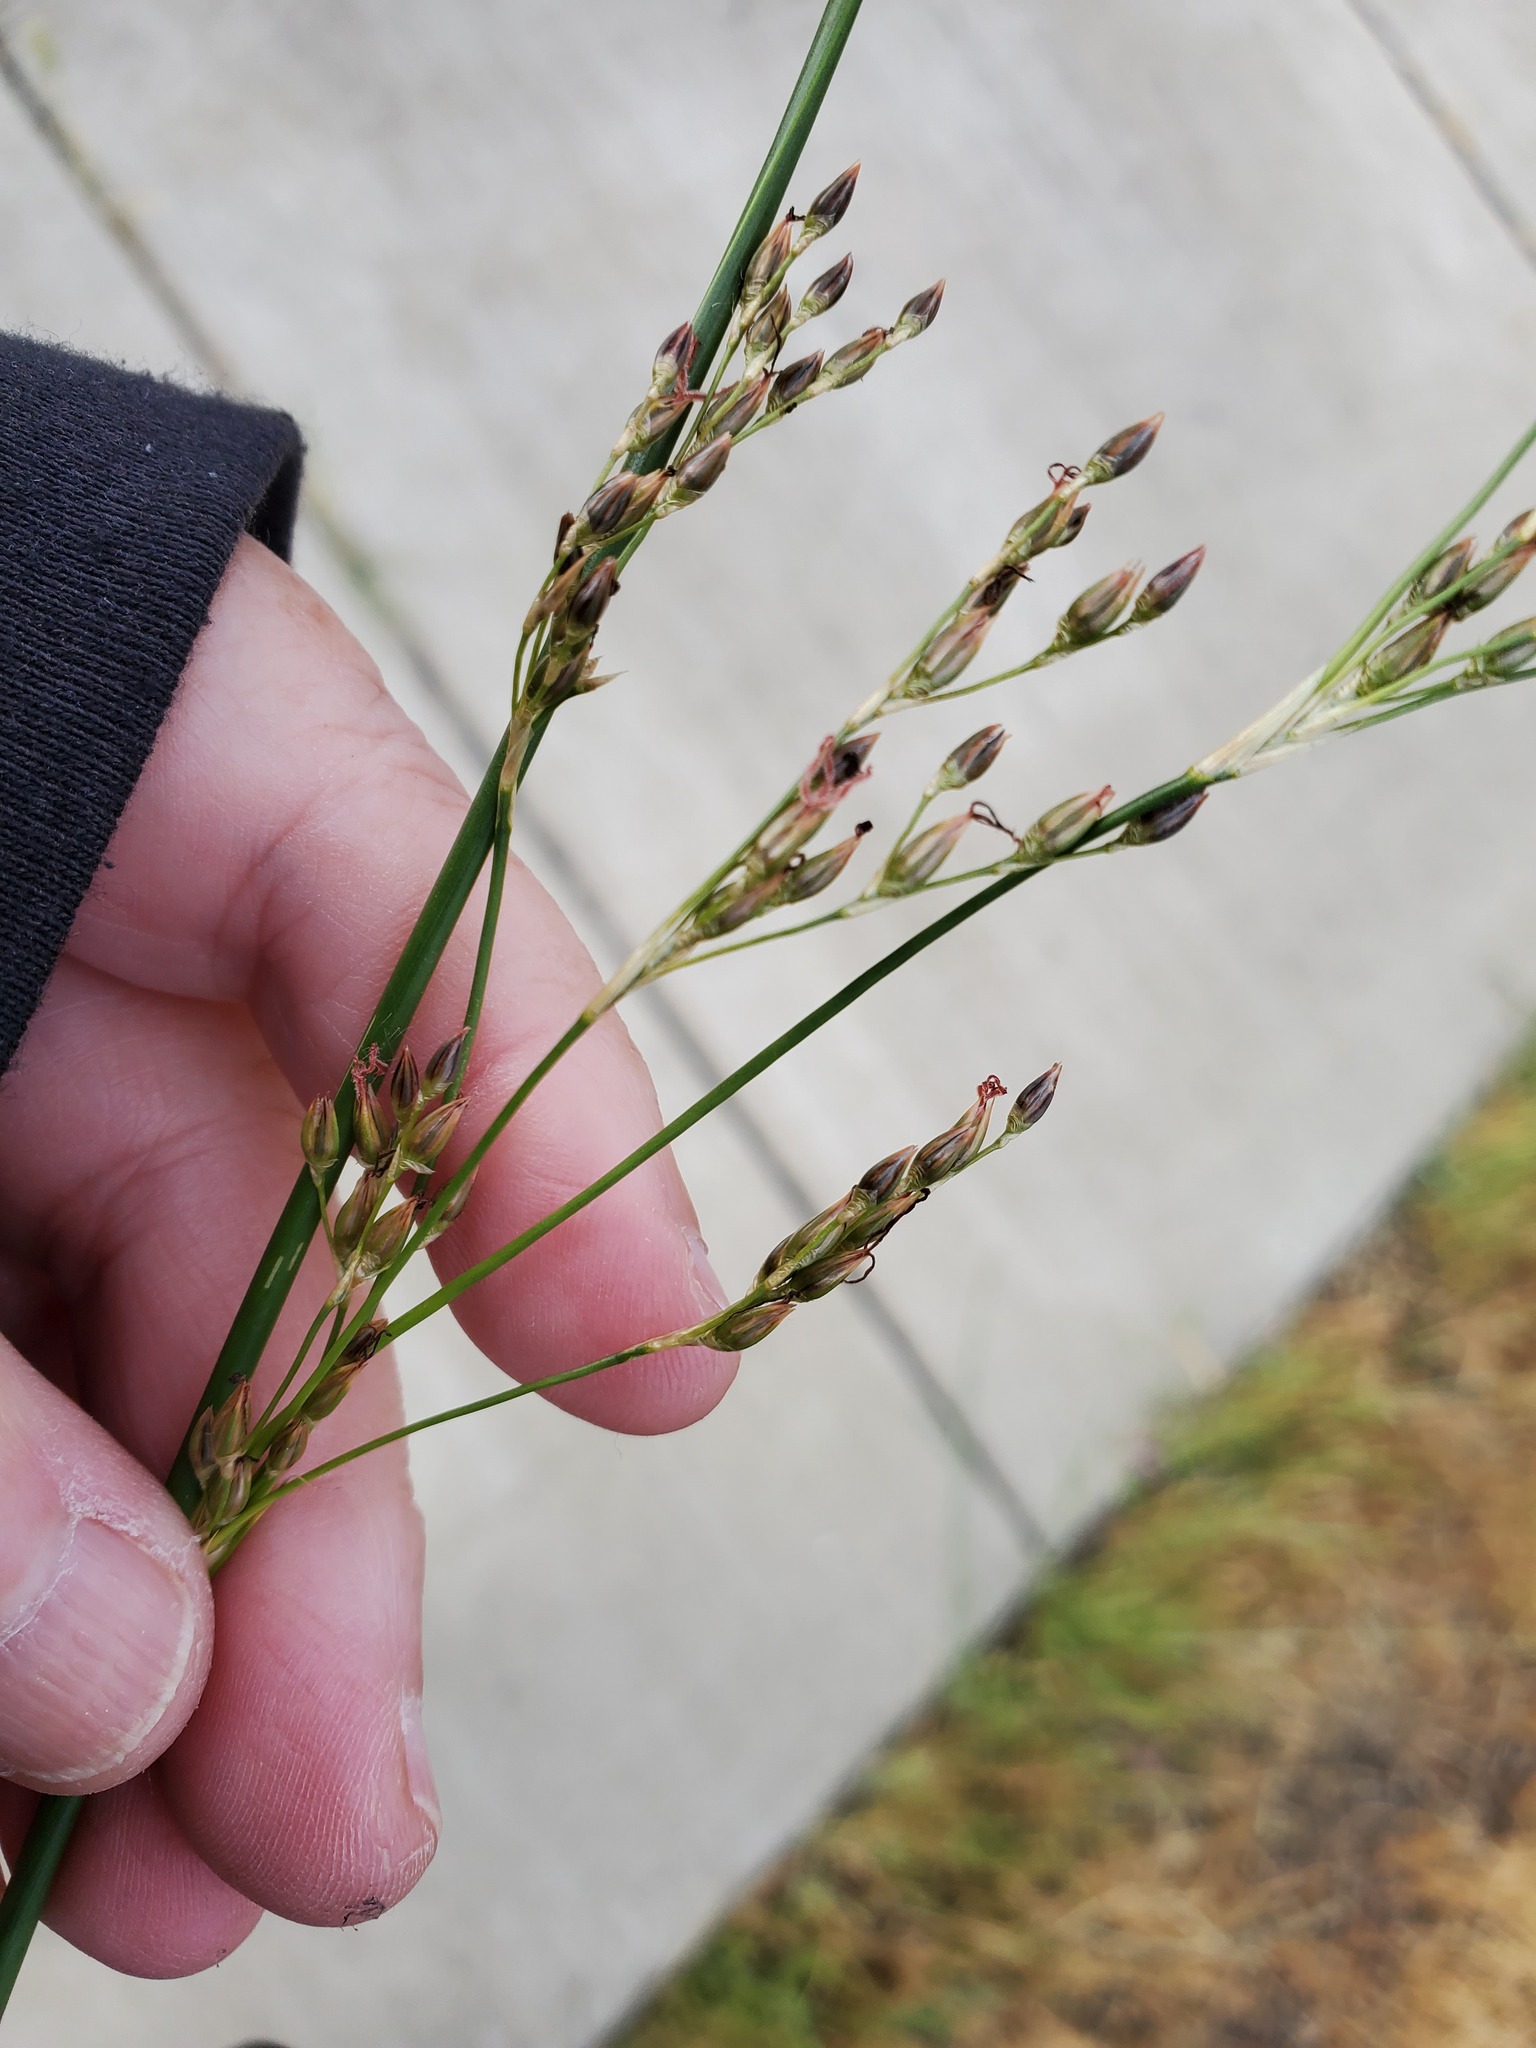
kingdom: Plantae
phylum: Tracheophyta
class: Liliopsida
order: Poales
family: Juncaceae
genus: Juncus
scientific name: Juncus balticus
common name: Baltic rush
